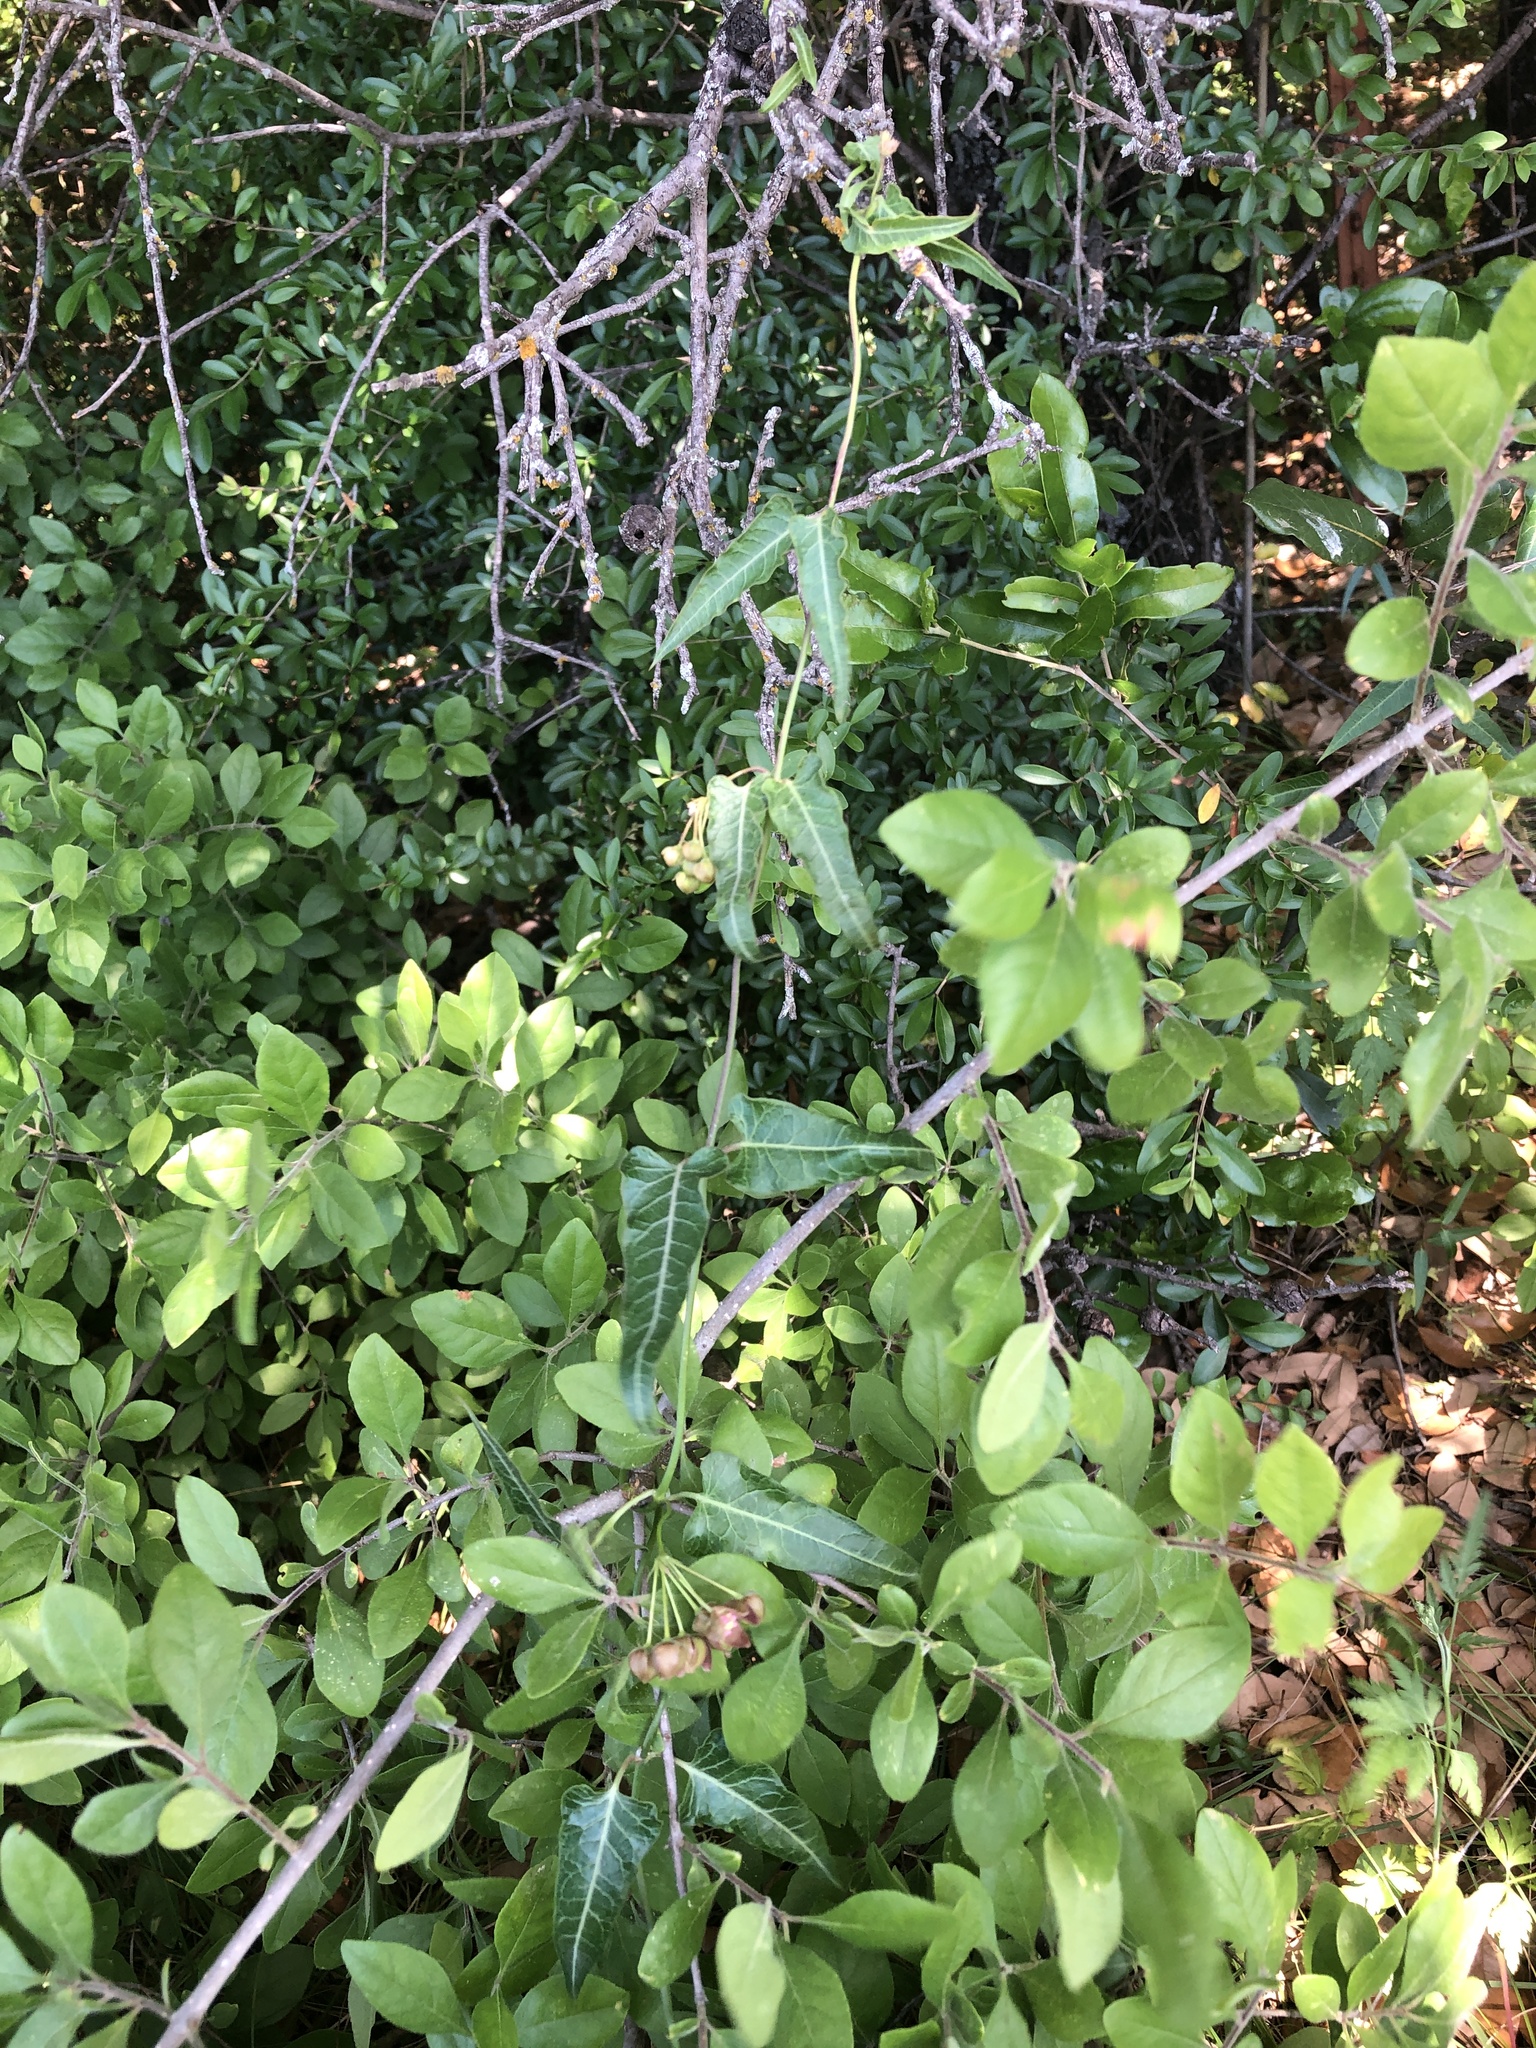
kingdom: Plantae
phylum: Tracheophyta
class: Magnoliopsida
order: Gentianales
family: Apocynaceae
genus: Funastrum
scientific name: Funastrum crispum
